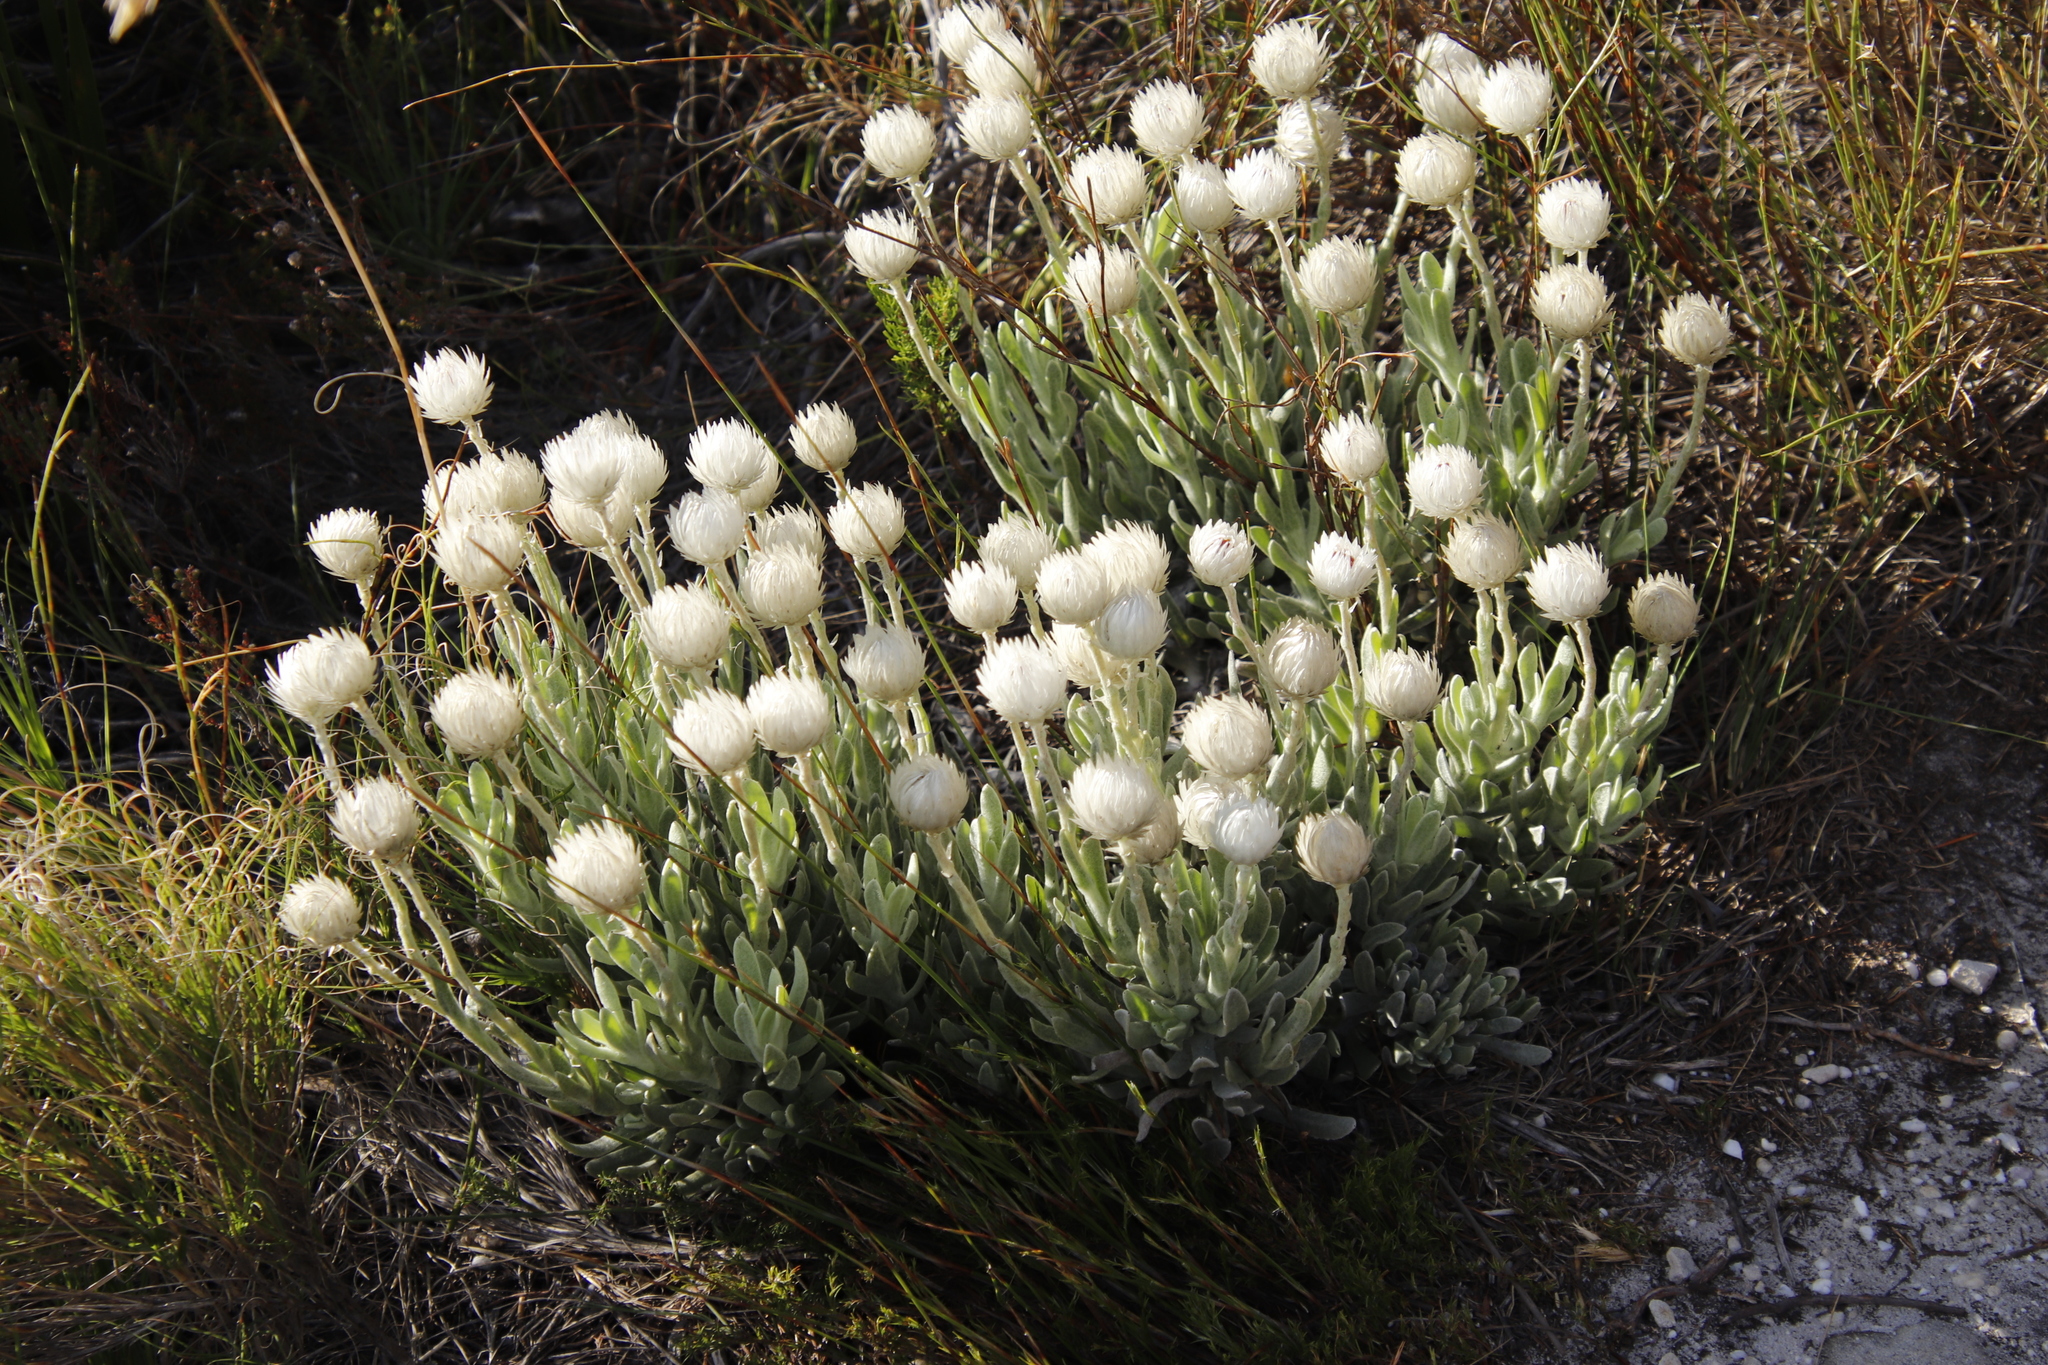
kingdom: Plantae
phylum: Tracheophyta
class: Magnoliopsida
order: Asterales
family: Asteraceae
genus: Syncarpha
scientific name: Syncarpha vestita
